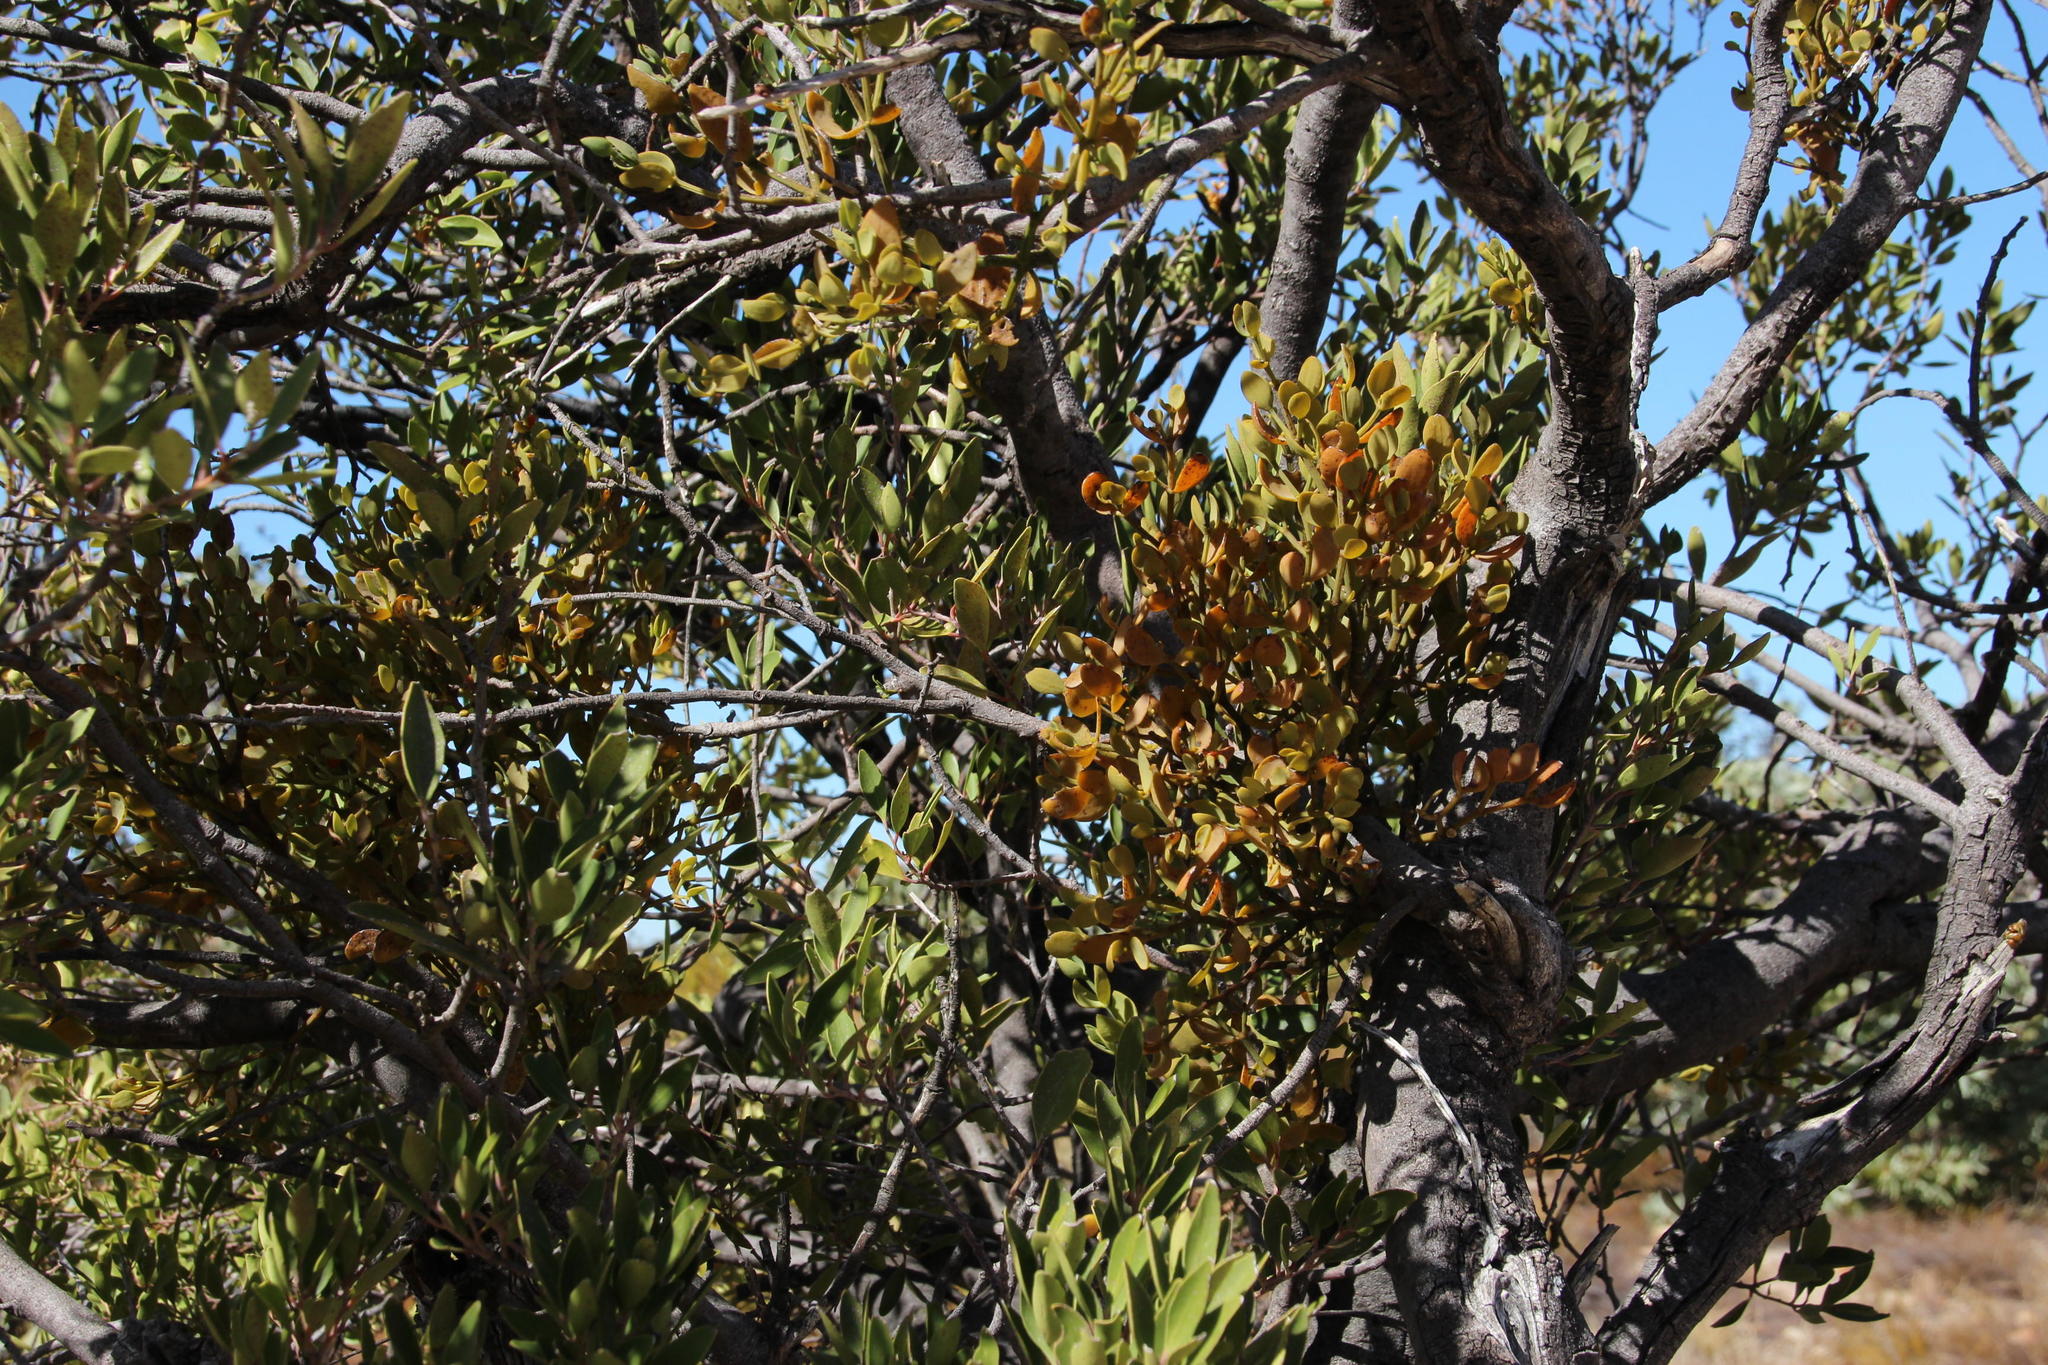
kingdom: Plantae
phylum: Tracheophyta
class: Magnoliopsida
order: Celastrales
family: Celastraceae
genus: Gymnosporia
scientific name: Gymnosporia laurina
